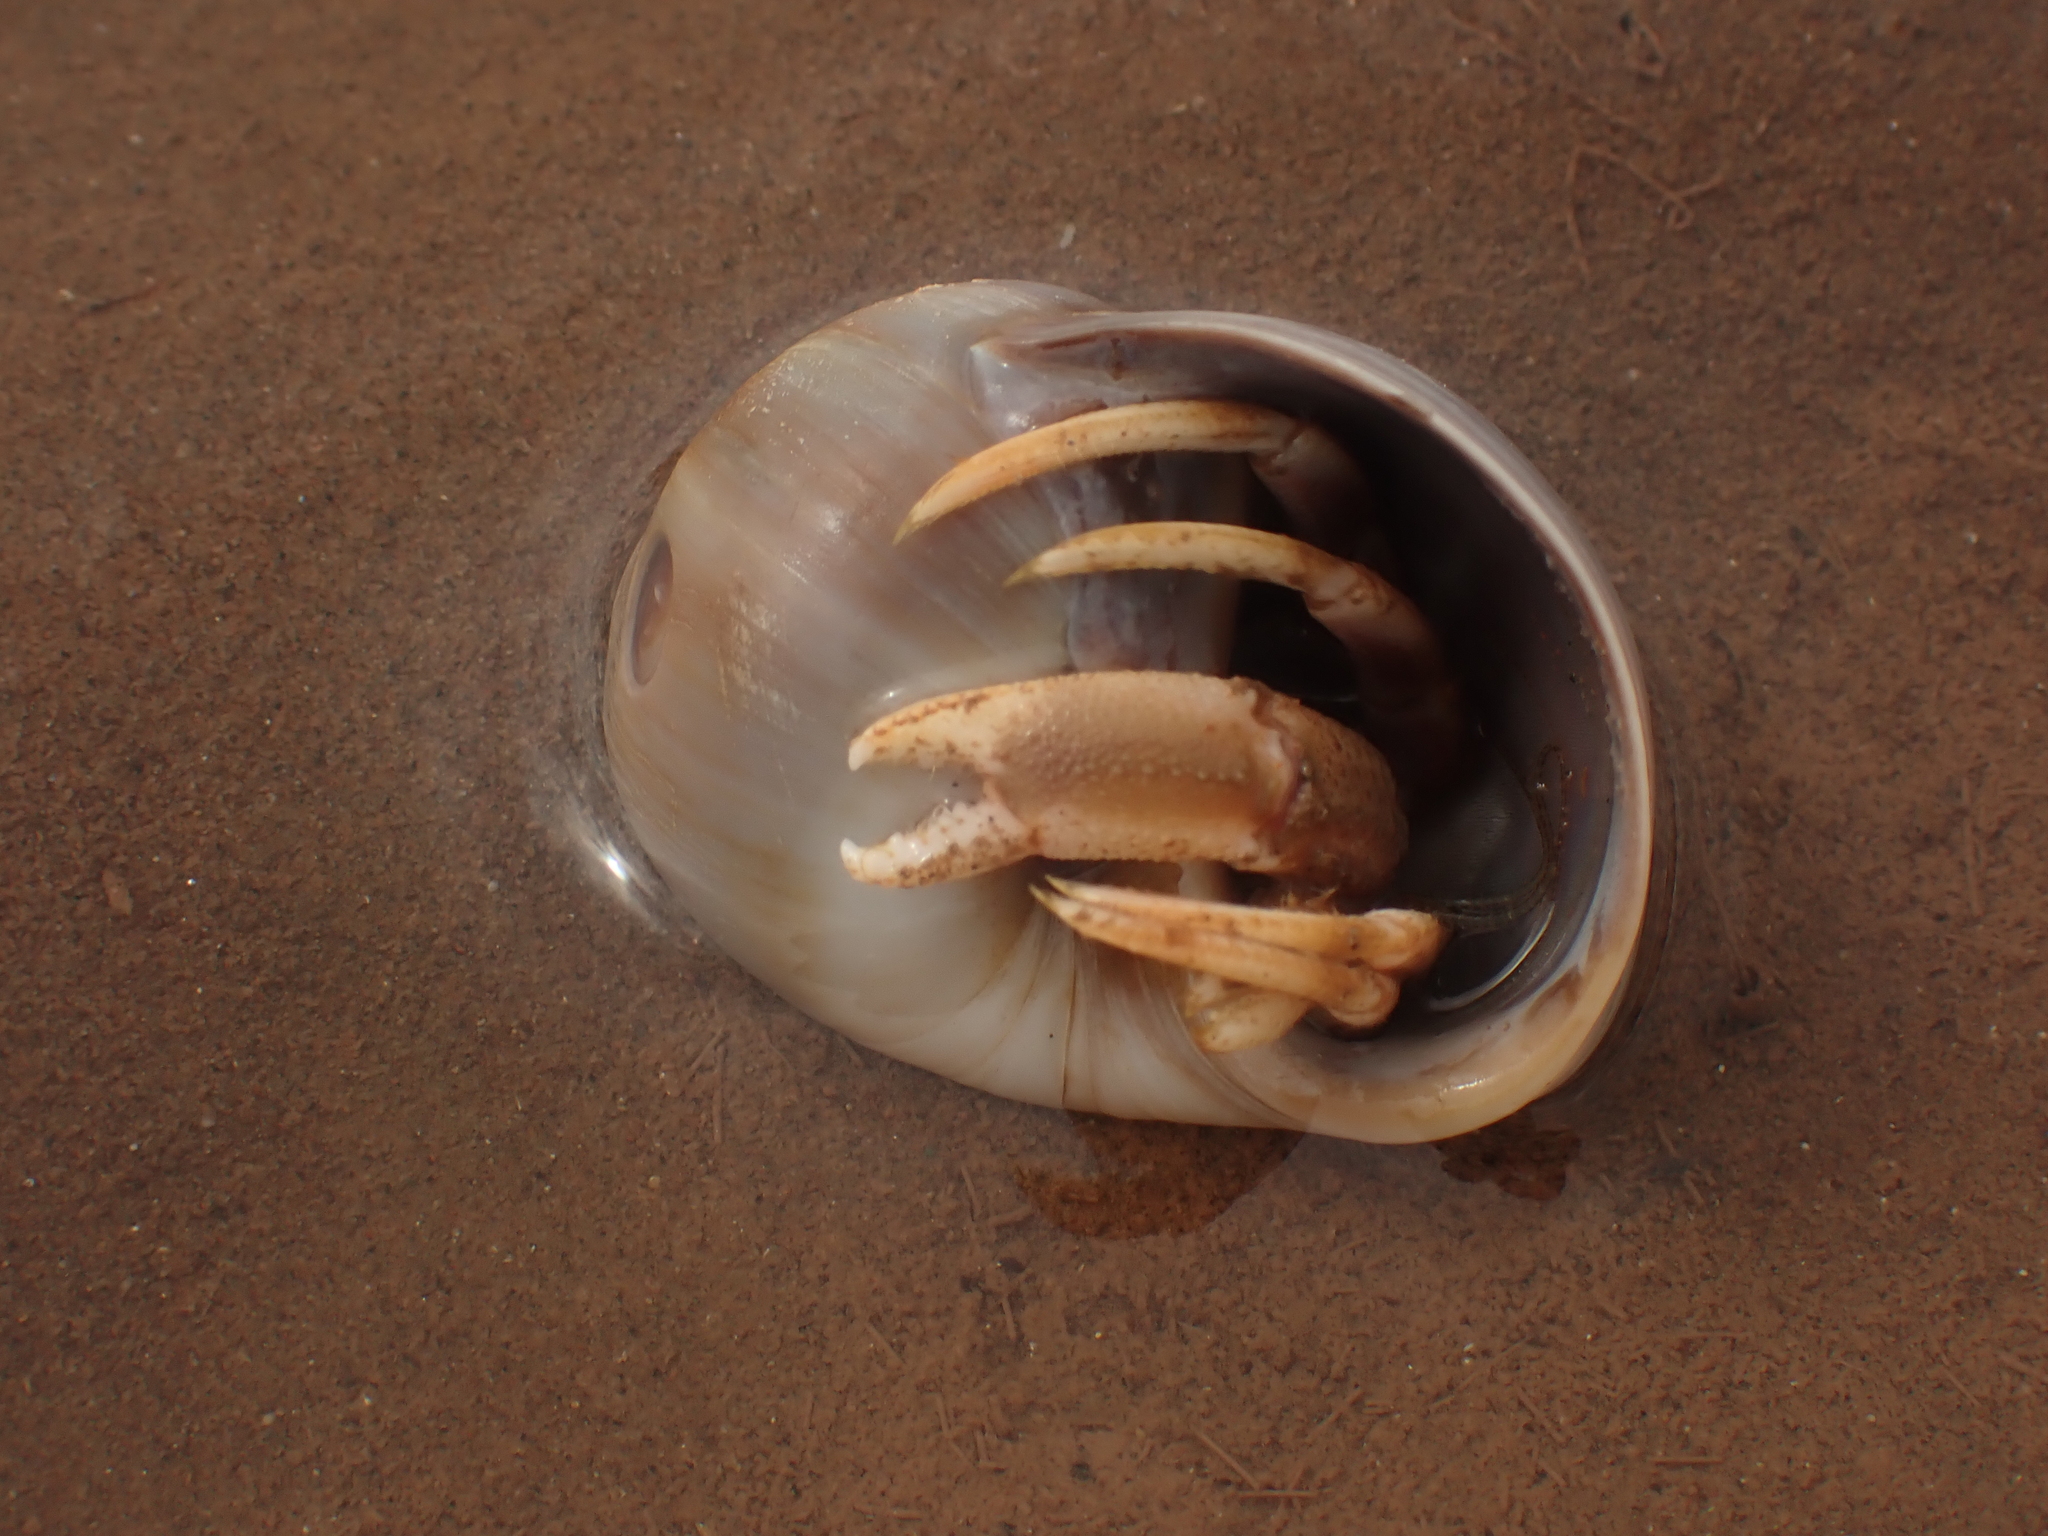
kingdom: Animalia
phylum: Arthropoda
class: Malacostraca
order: Decapoda
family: Paguridae
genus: Pagurus
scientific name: Pagurus longicarpus
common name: Long-armed hermit crab
